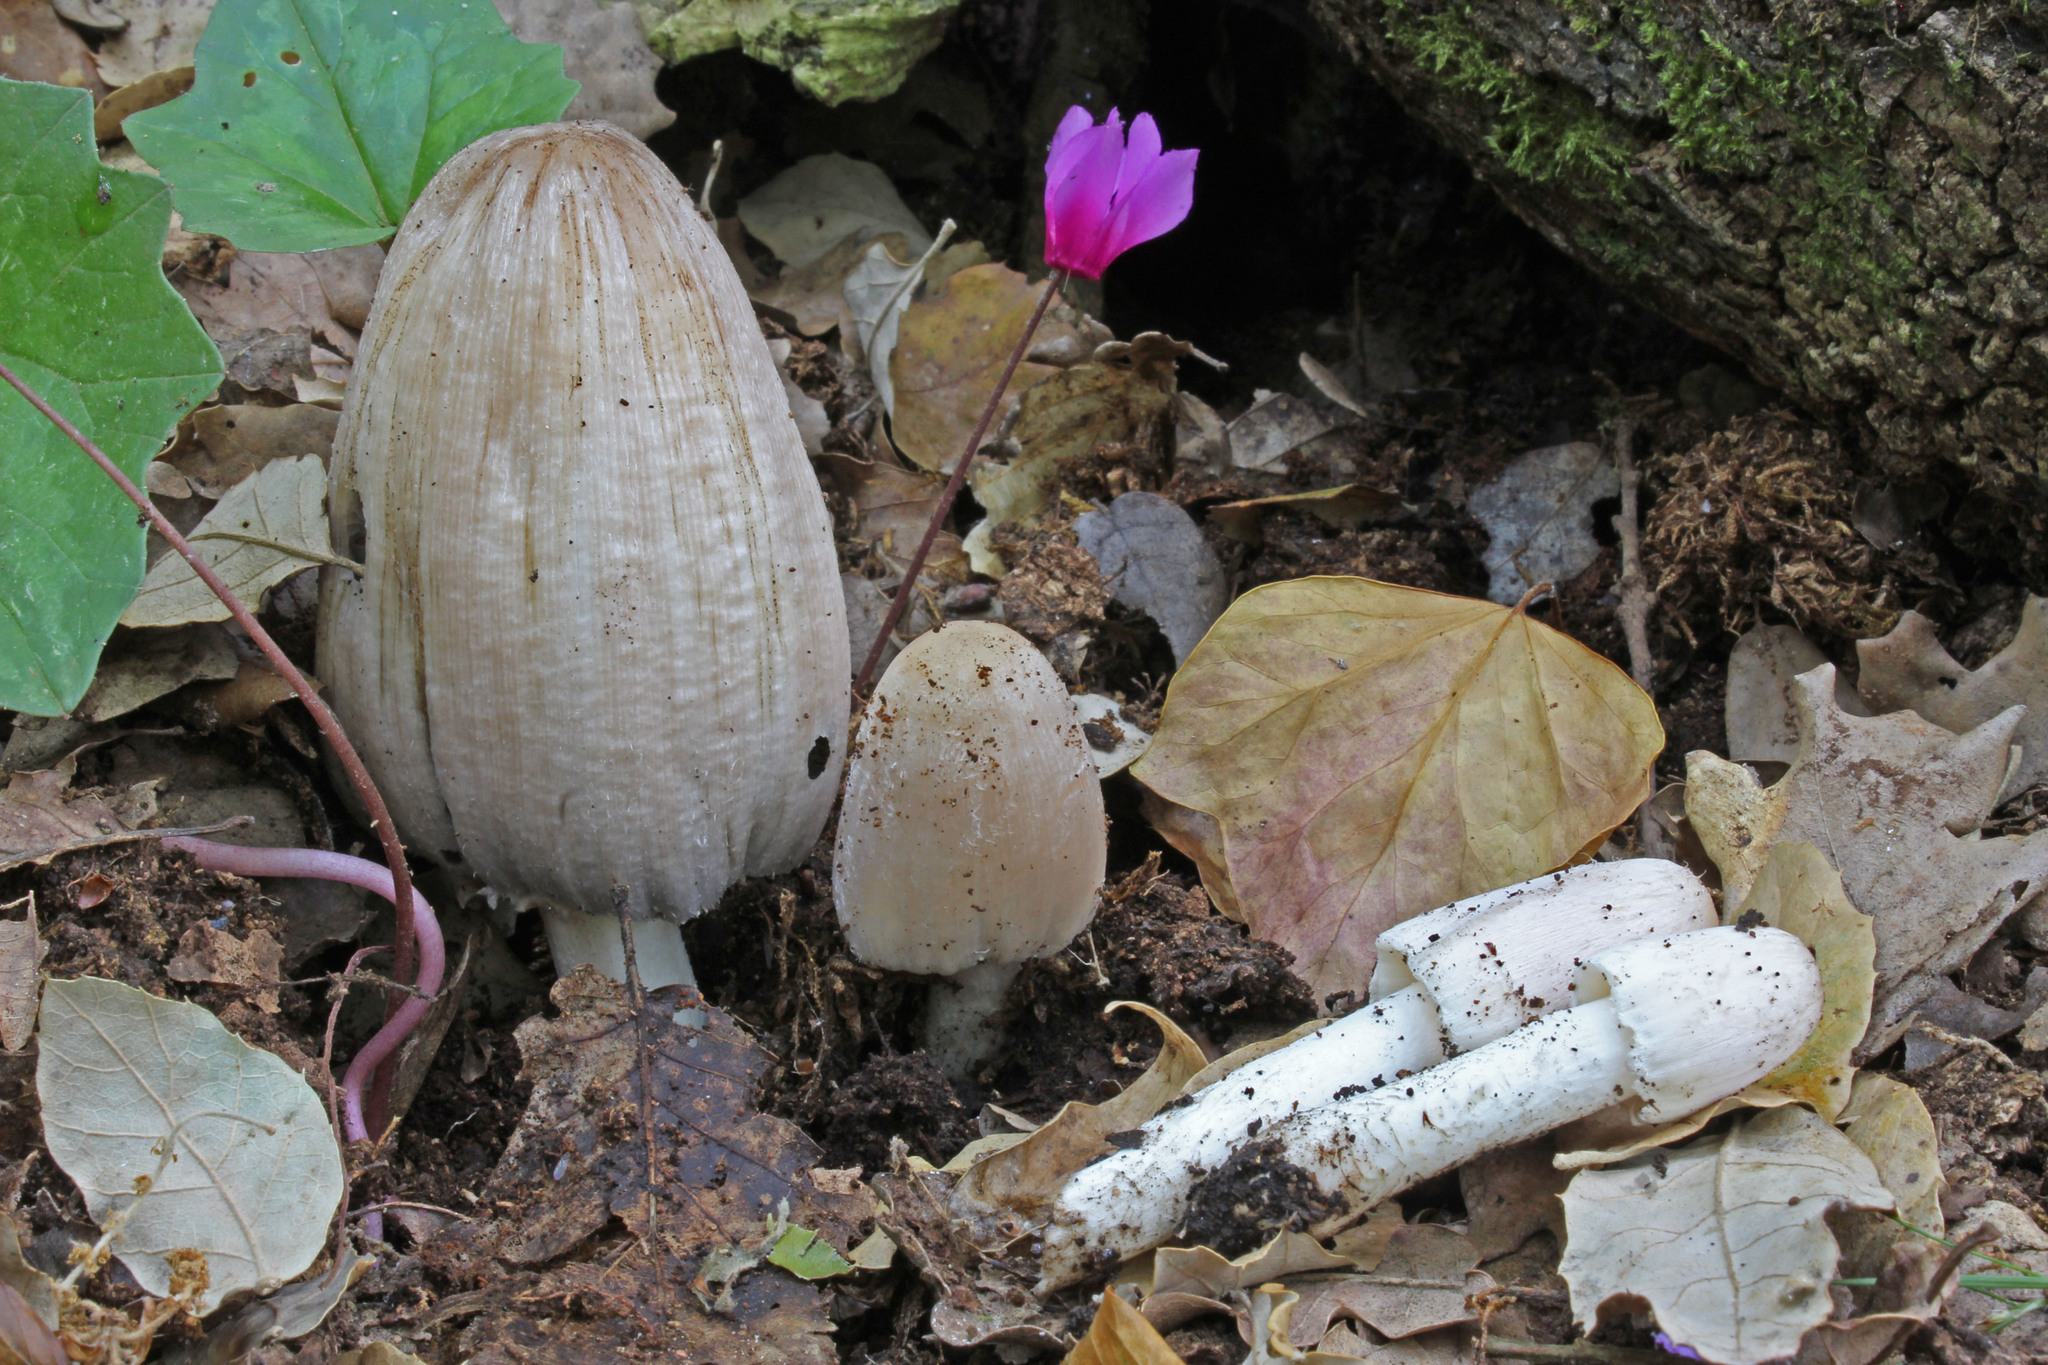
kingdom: Fungi
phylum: Basidiomycota
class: Agaricomycetes
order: Agaricales
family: Psathyrellaceae
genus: Coprinopsis
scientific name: Coprinopsis insignis
